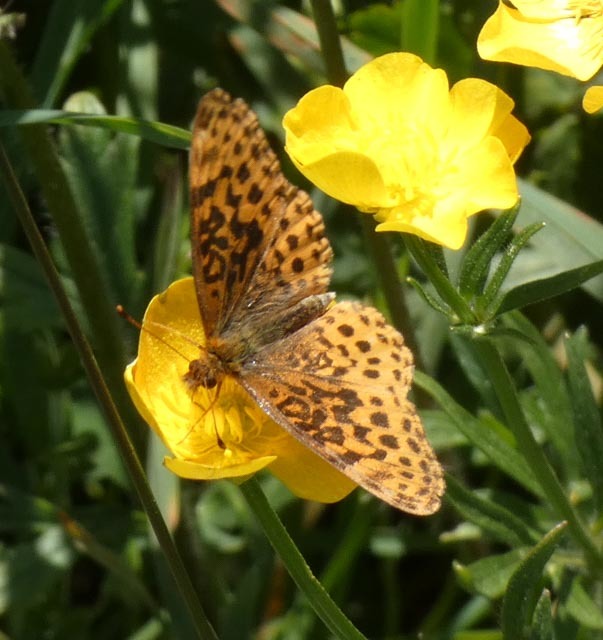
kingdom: Animalia
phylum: Arthropoda
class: Insecta
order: Lepidoptera
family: Nymphalidae
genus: Clossiana
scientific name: Clossiana toddi
